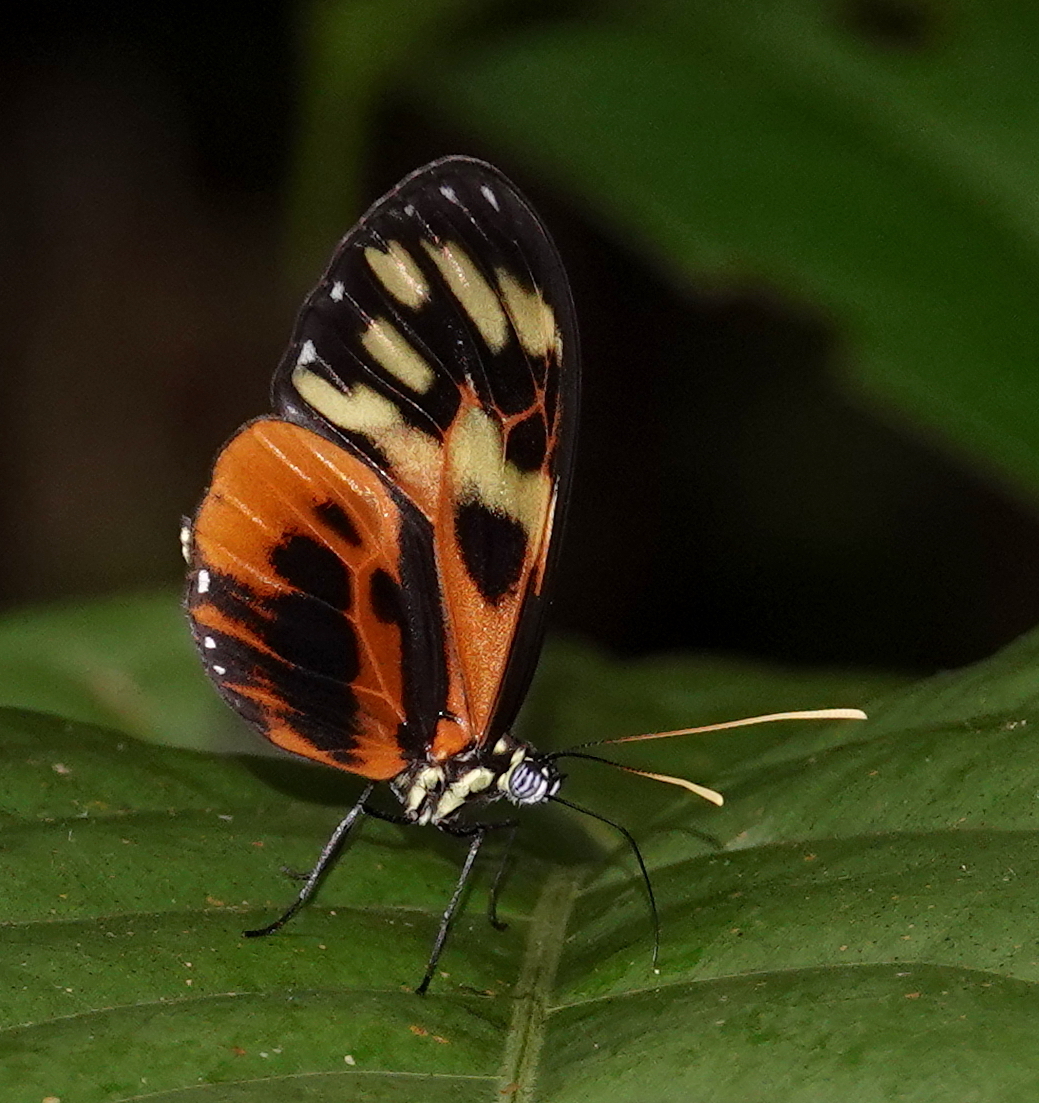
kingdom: Animalia
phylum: Arthropoda
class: Insecta
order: Lepidoptera
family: Nymphalidae
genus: Callithomia
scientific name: Callithomia alexirrhoe
